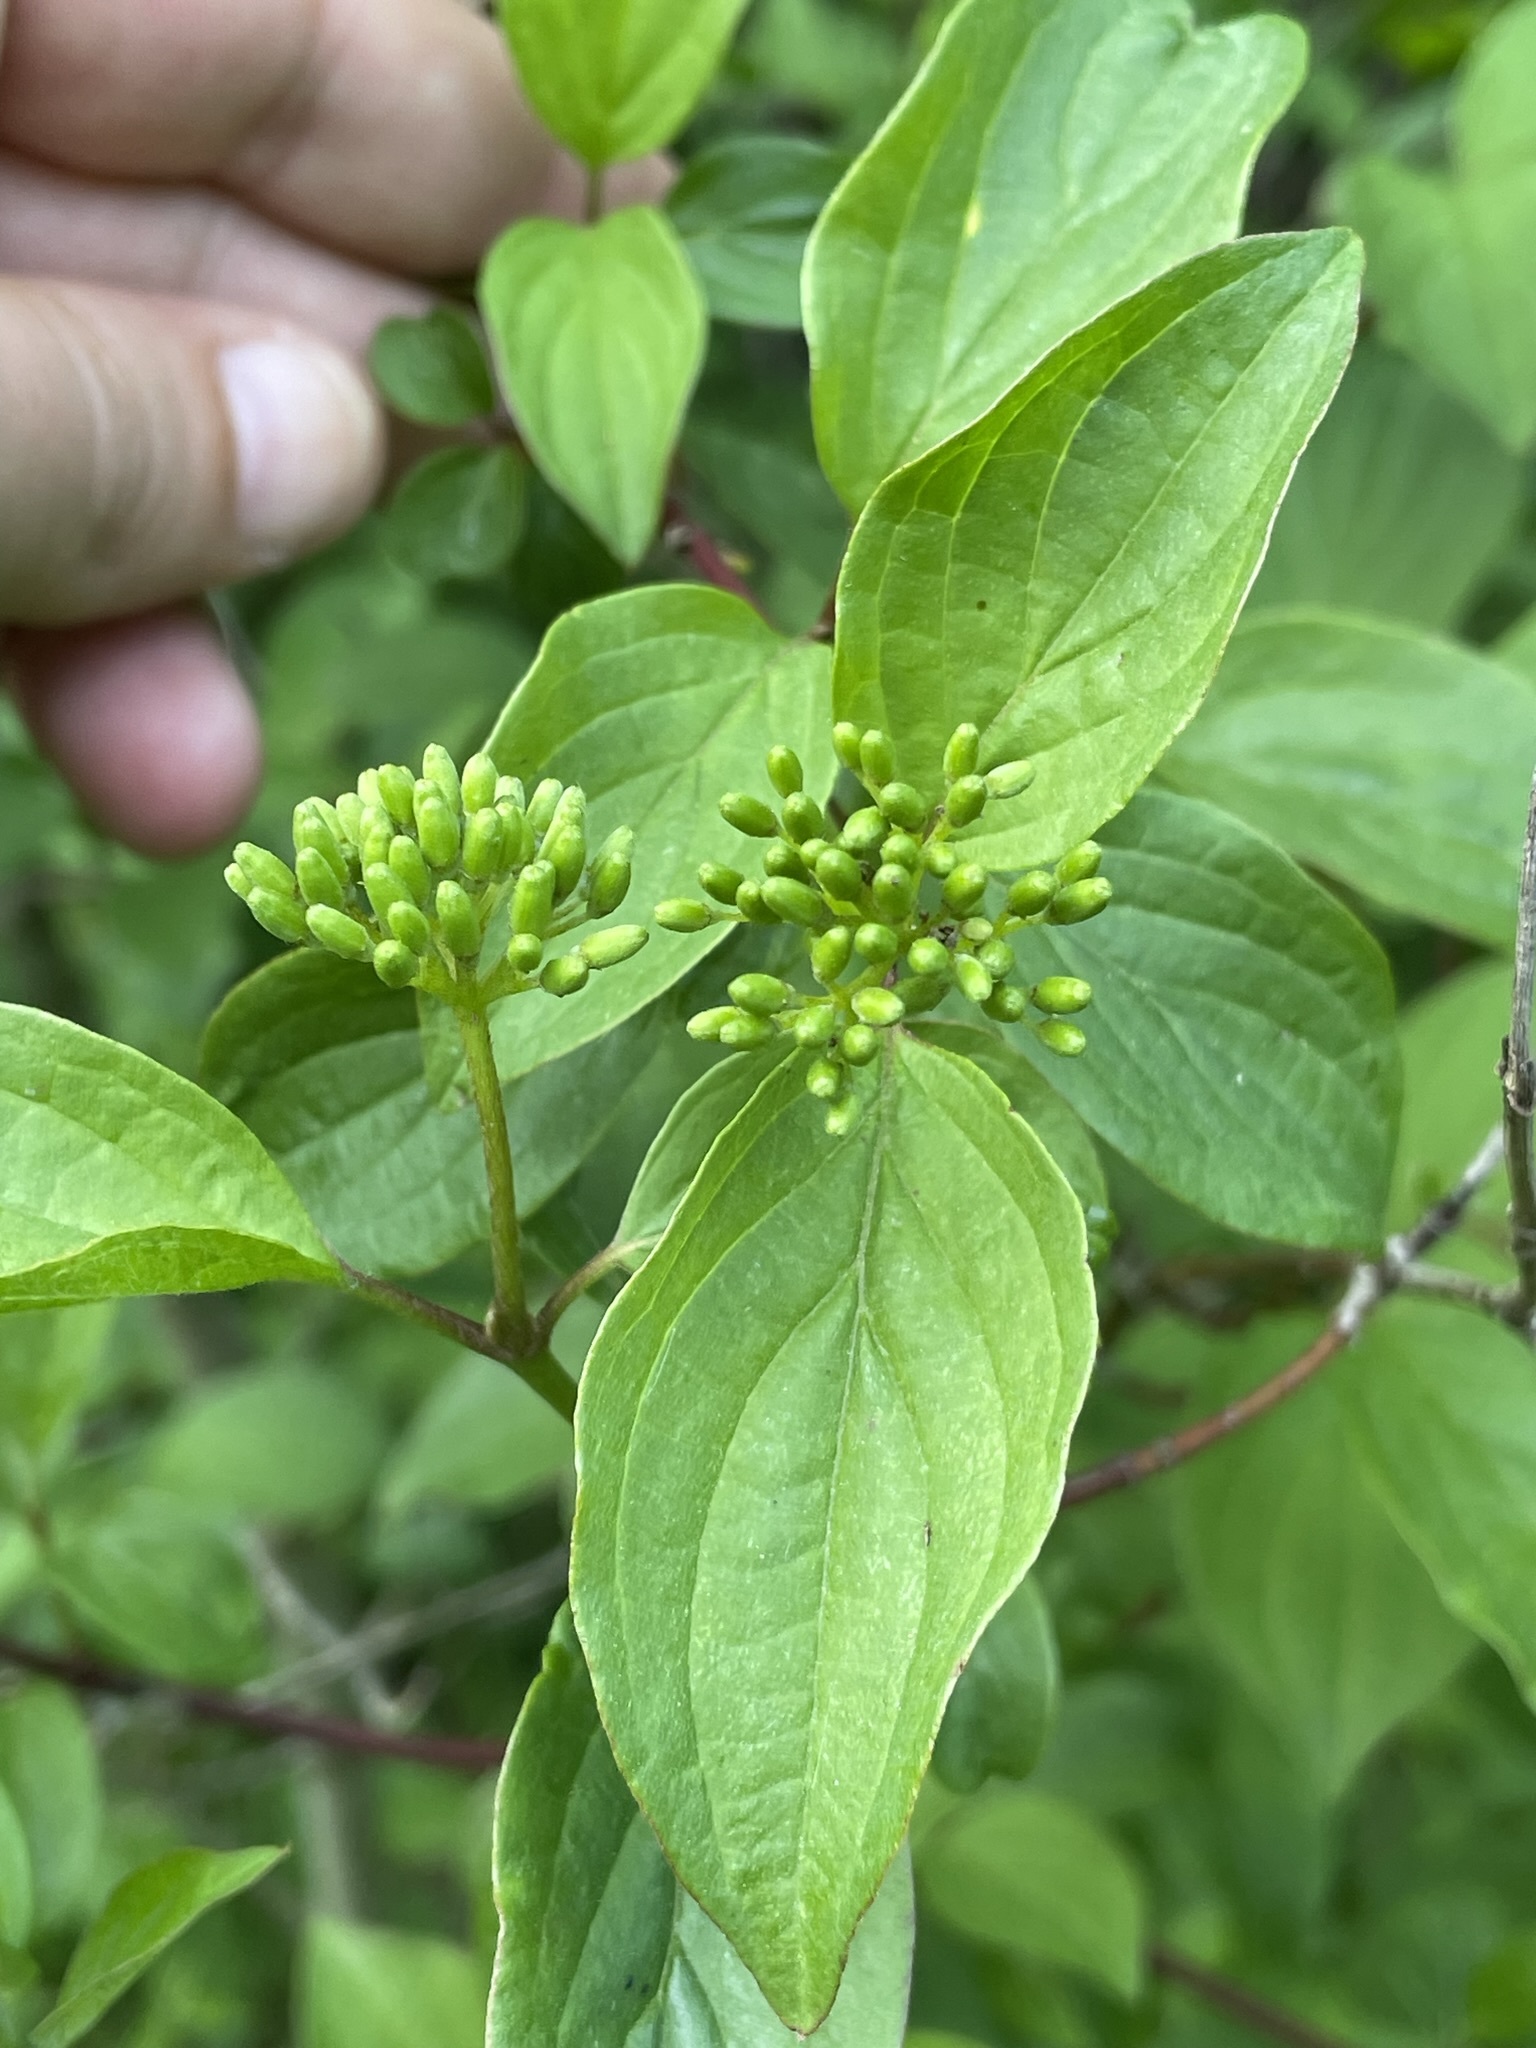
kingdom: Plantae
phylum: Tracheophyta
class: Magnoliopsida
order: Cornales
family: Cornaceae
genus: Cornus
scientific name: Cornus sanguinea
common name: Dogwood
